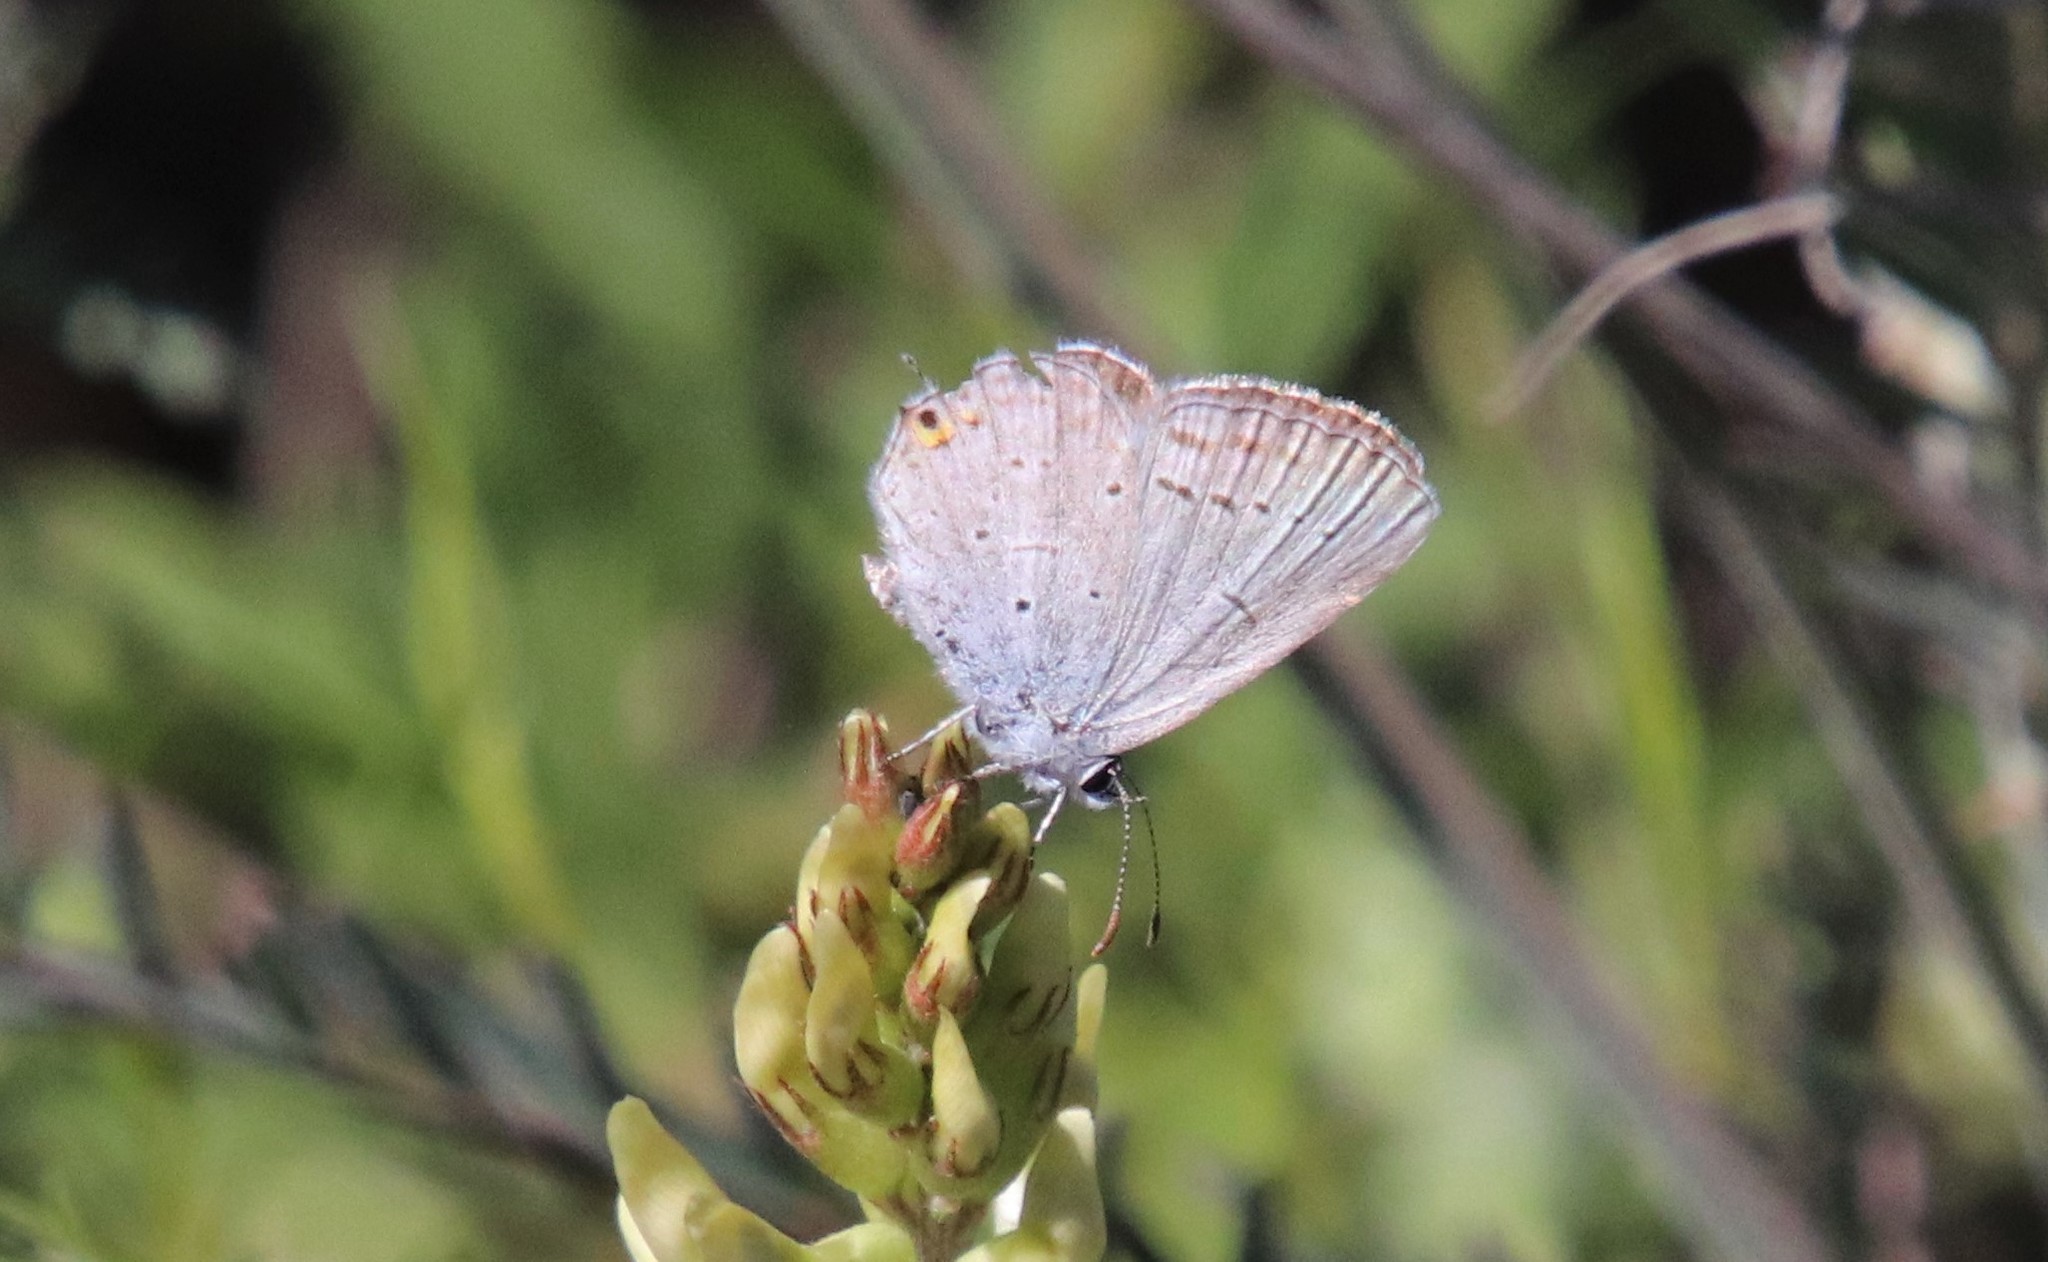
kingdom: Animalia
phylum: Arthropoda
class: Insecta
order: Lepidoptera
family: Lycaenidae
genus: Elkalyce
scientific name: Elkalyce amyntula
